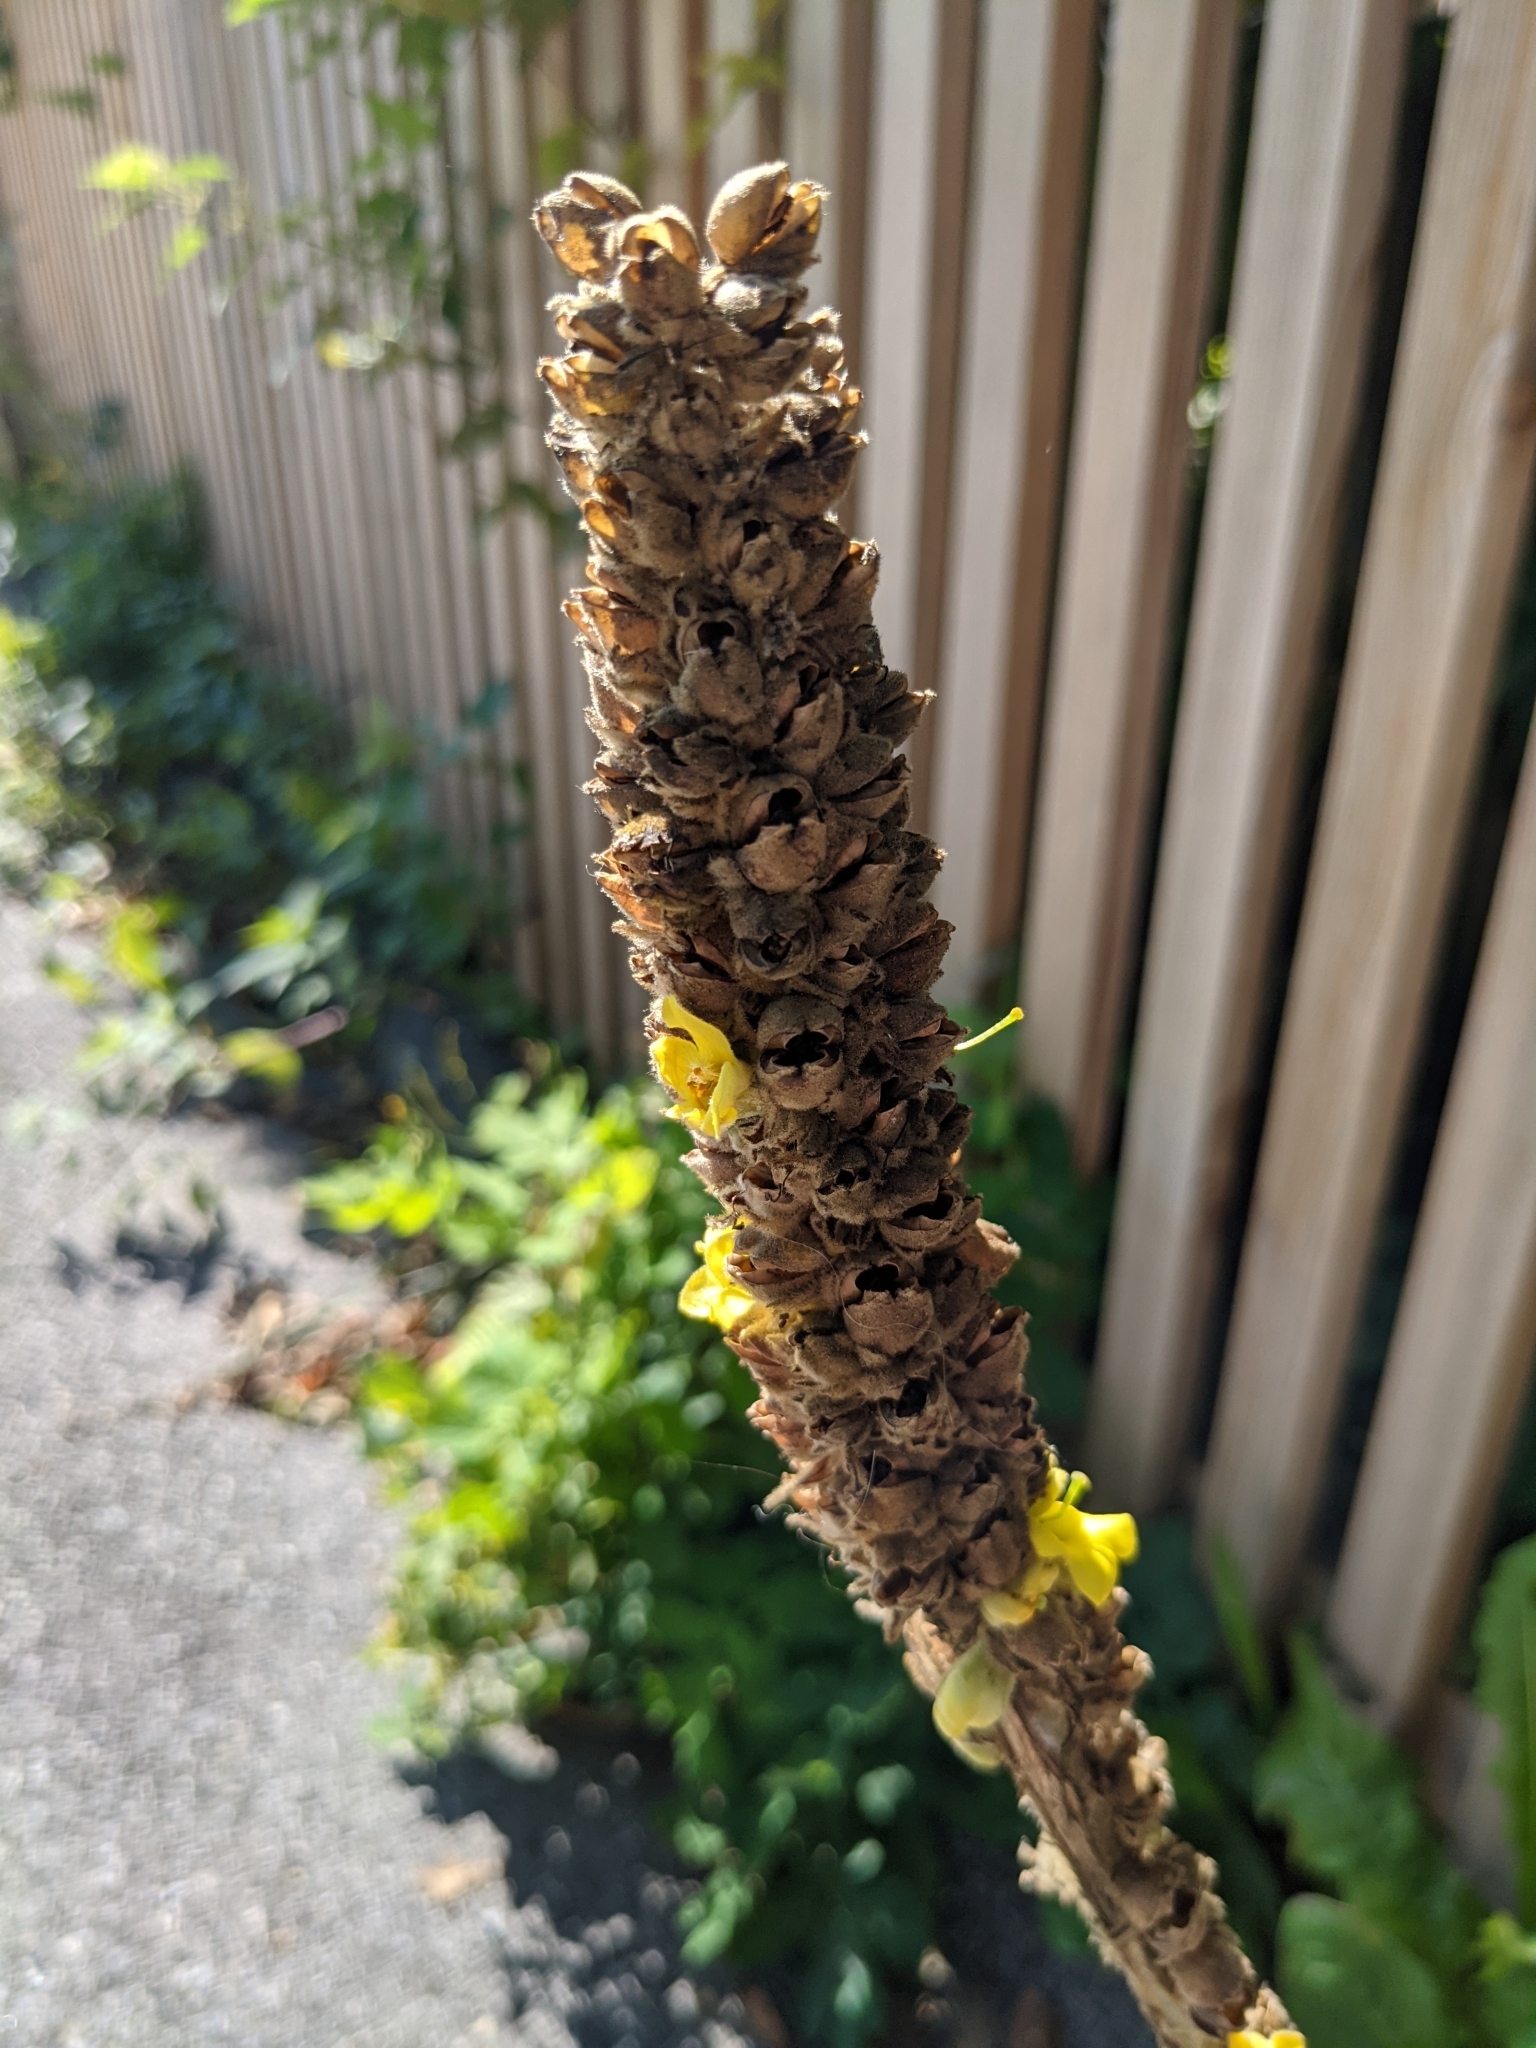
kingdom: Plantae
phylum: Tracheophyta
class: Magnoliopsida
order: Lamiales
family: Scrophulariaceae
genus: Verbascum
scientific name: Verbascum thapsus
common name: Common mullein
